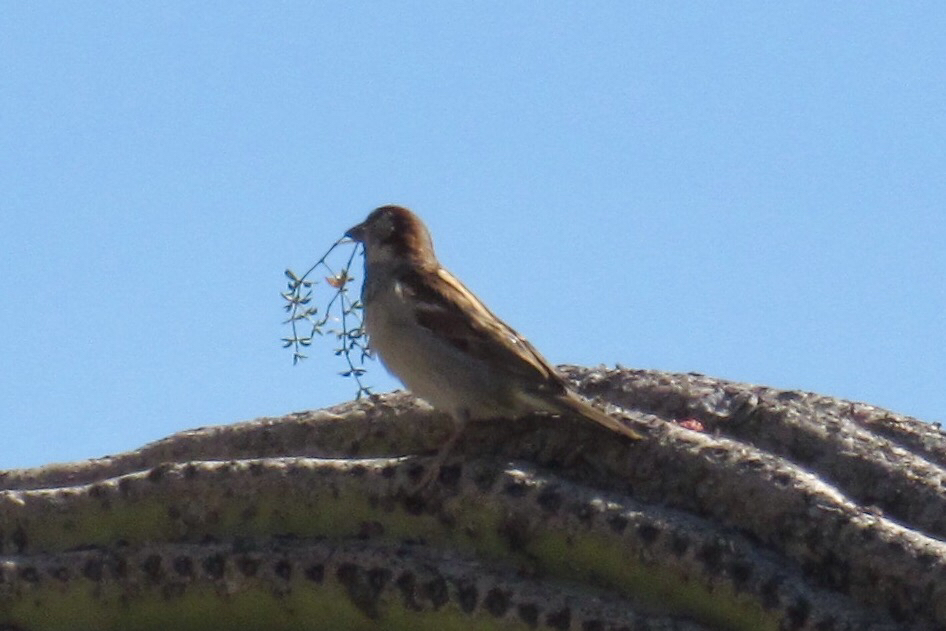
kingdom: Animalia
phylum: Chordata
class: Aves
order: Passeriformes
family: Passeridae
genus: Passer
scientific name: Passer domesticus
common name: House sparrow
